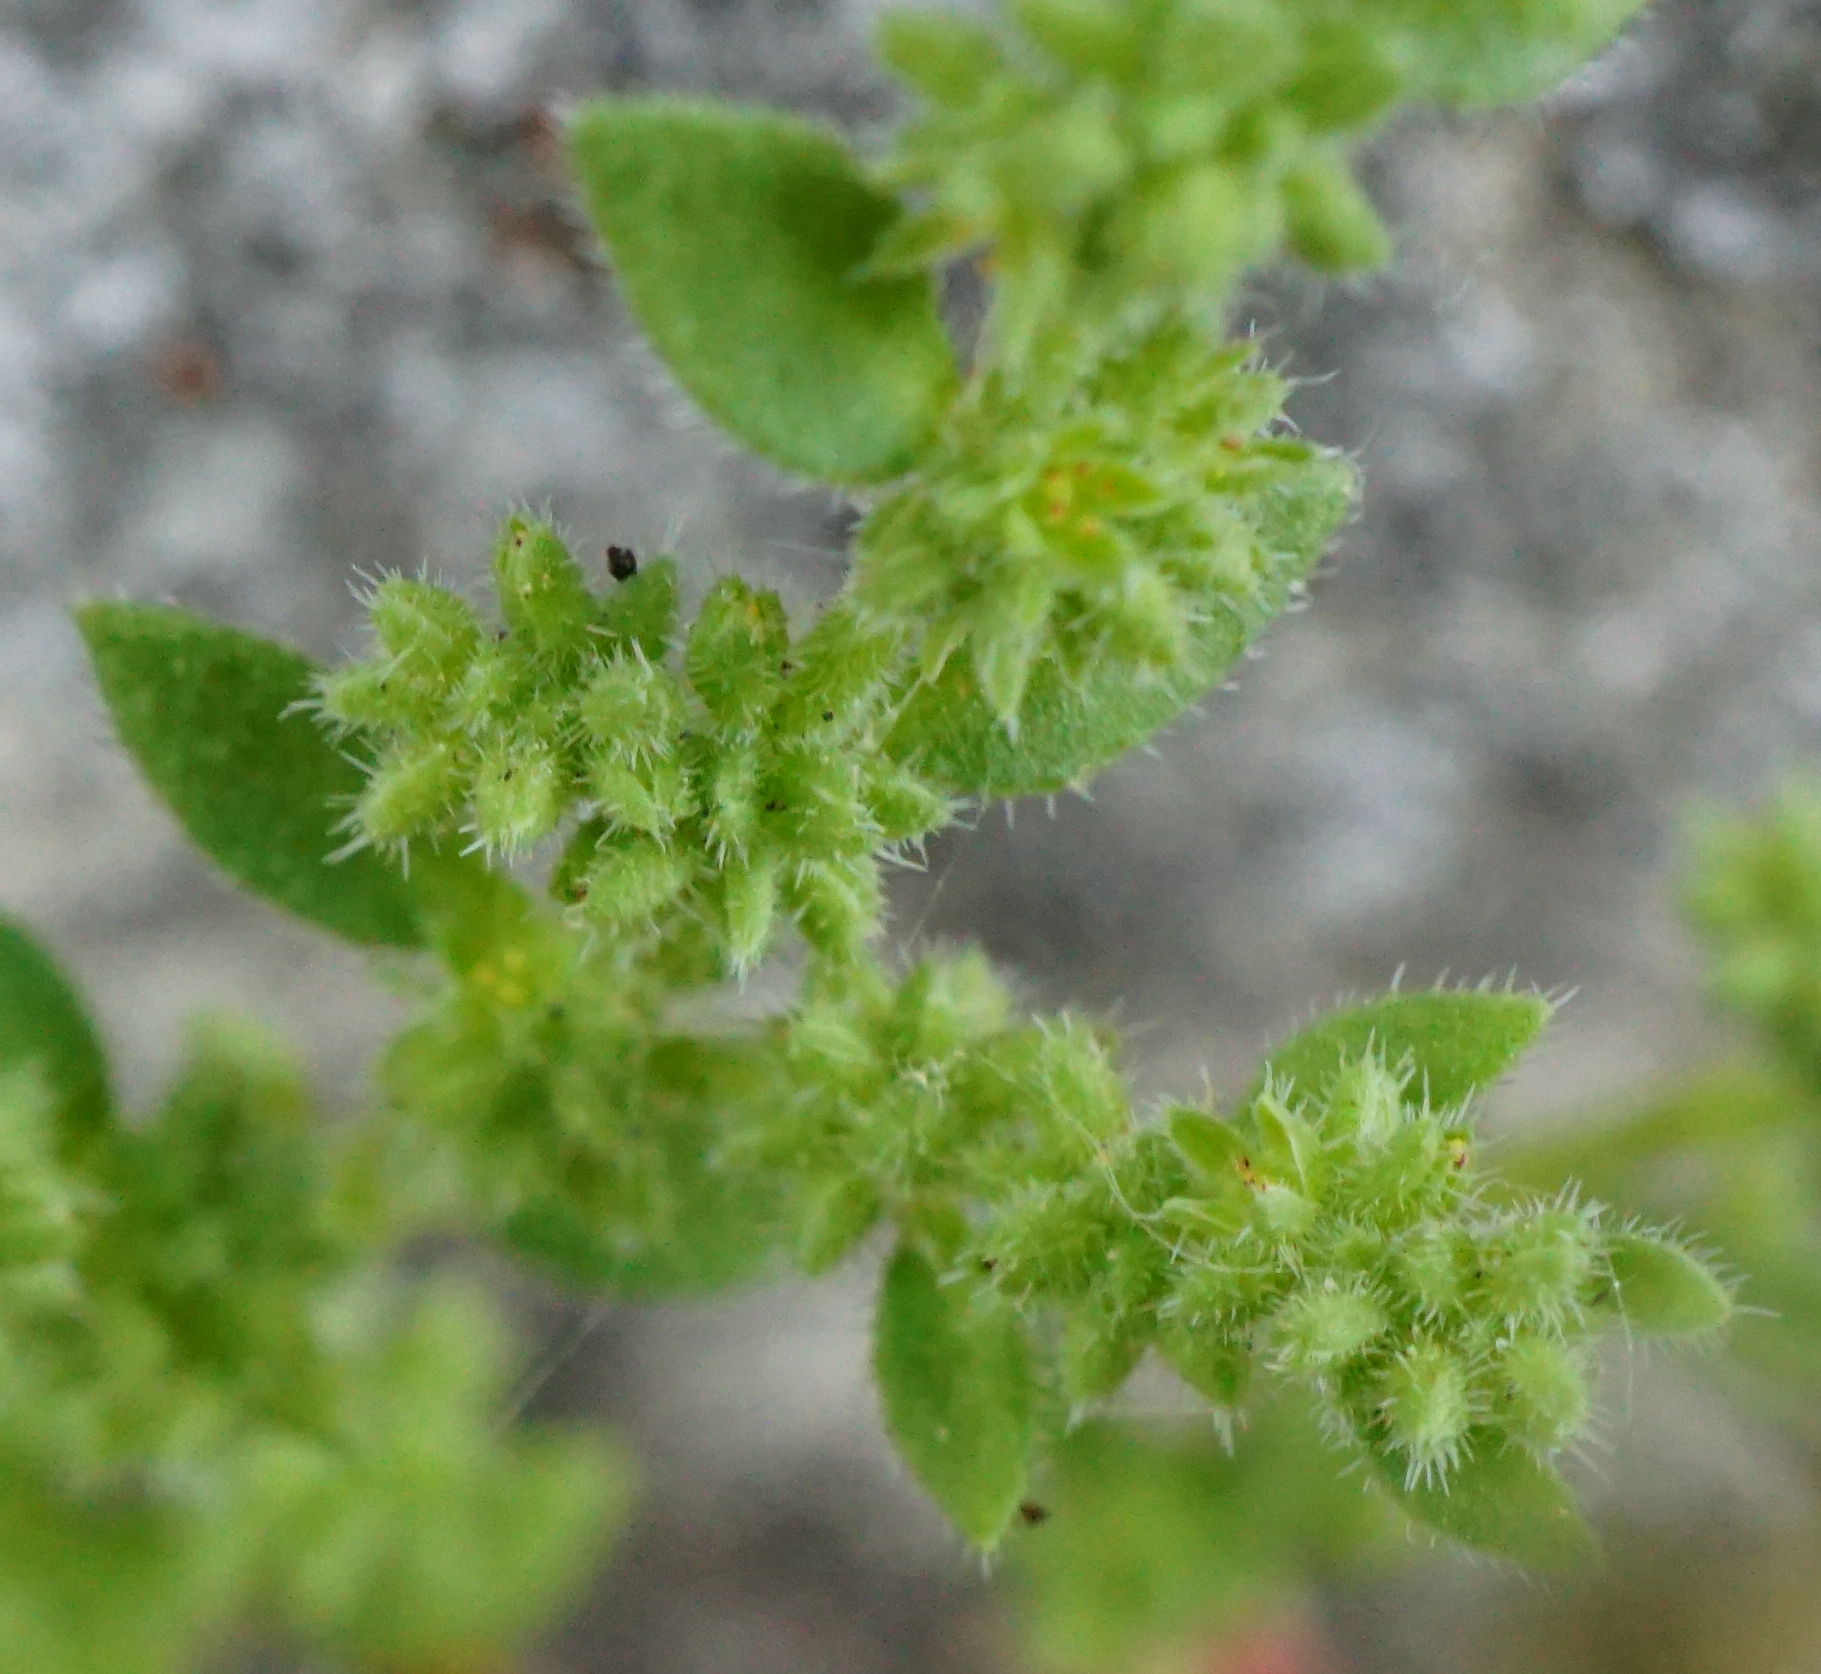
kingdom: Plantae
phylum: Tracheophyta
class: Magnoliopsida
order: Caryophyllales
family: Caryophyllaceae
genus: Herniaria
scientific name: Herniaria hirsuta
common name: Hairy rupturewort
